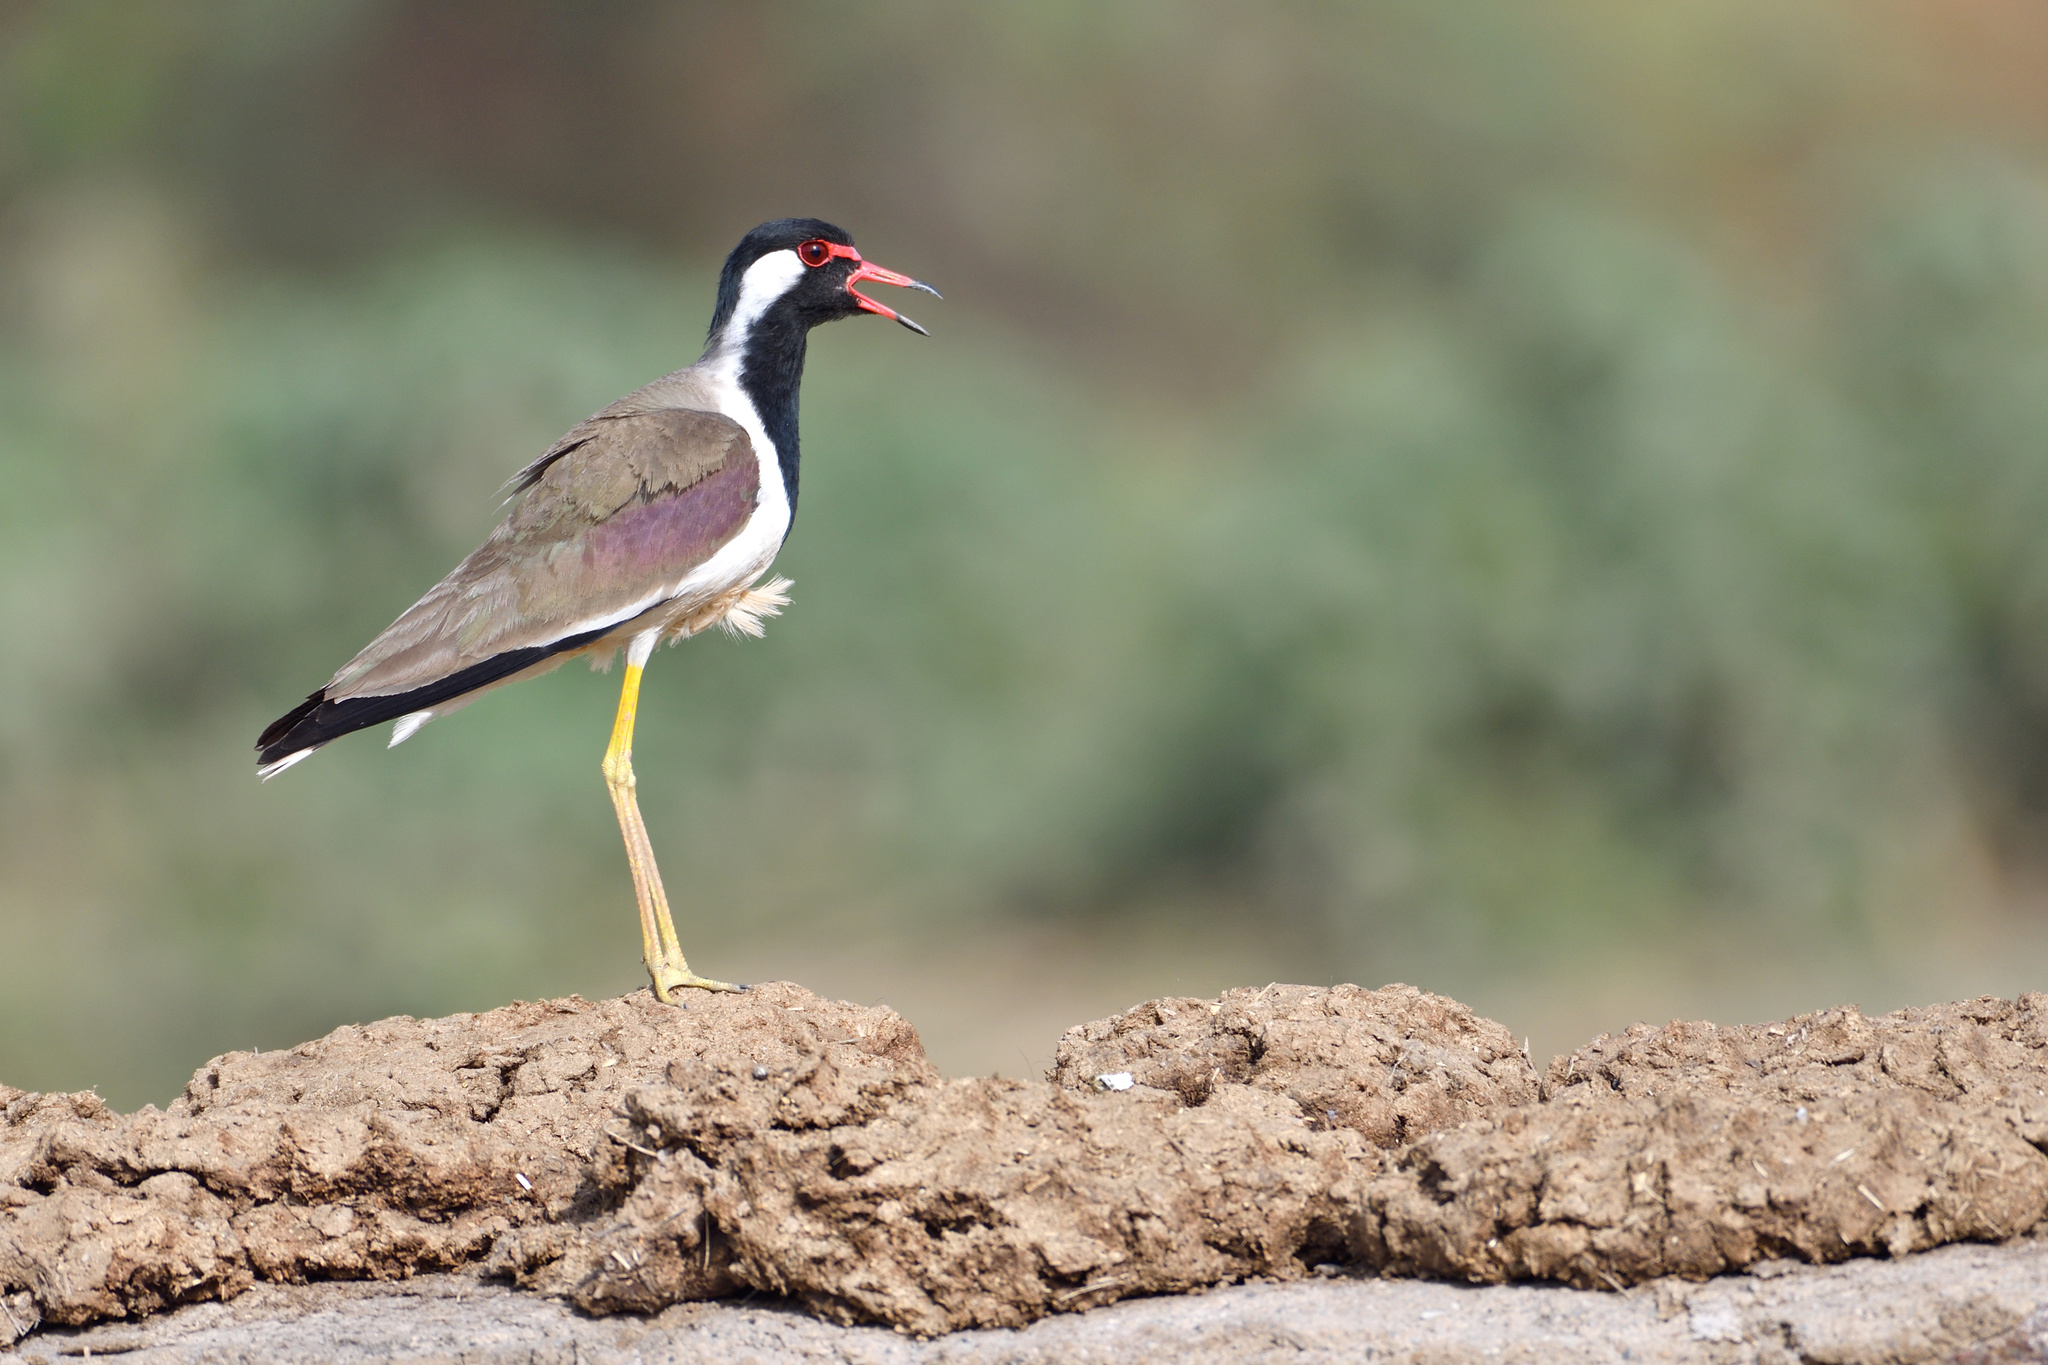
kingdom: Animalia
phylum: Chordata
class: Aves
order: Charadriiformes
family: Charadriidae
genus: Vanellus
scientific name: Vanellus indicus
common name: Red-wattled lapwing
